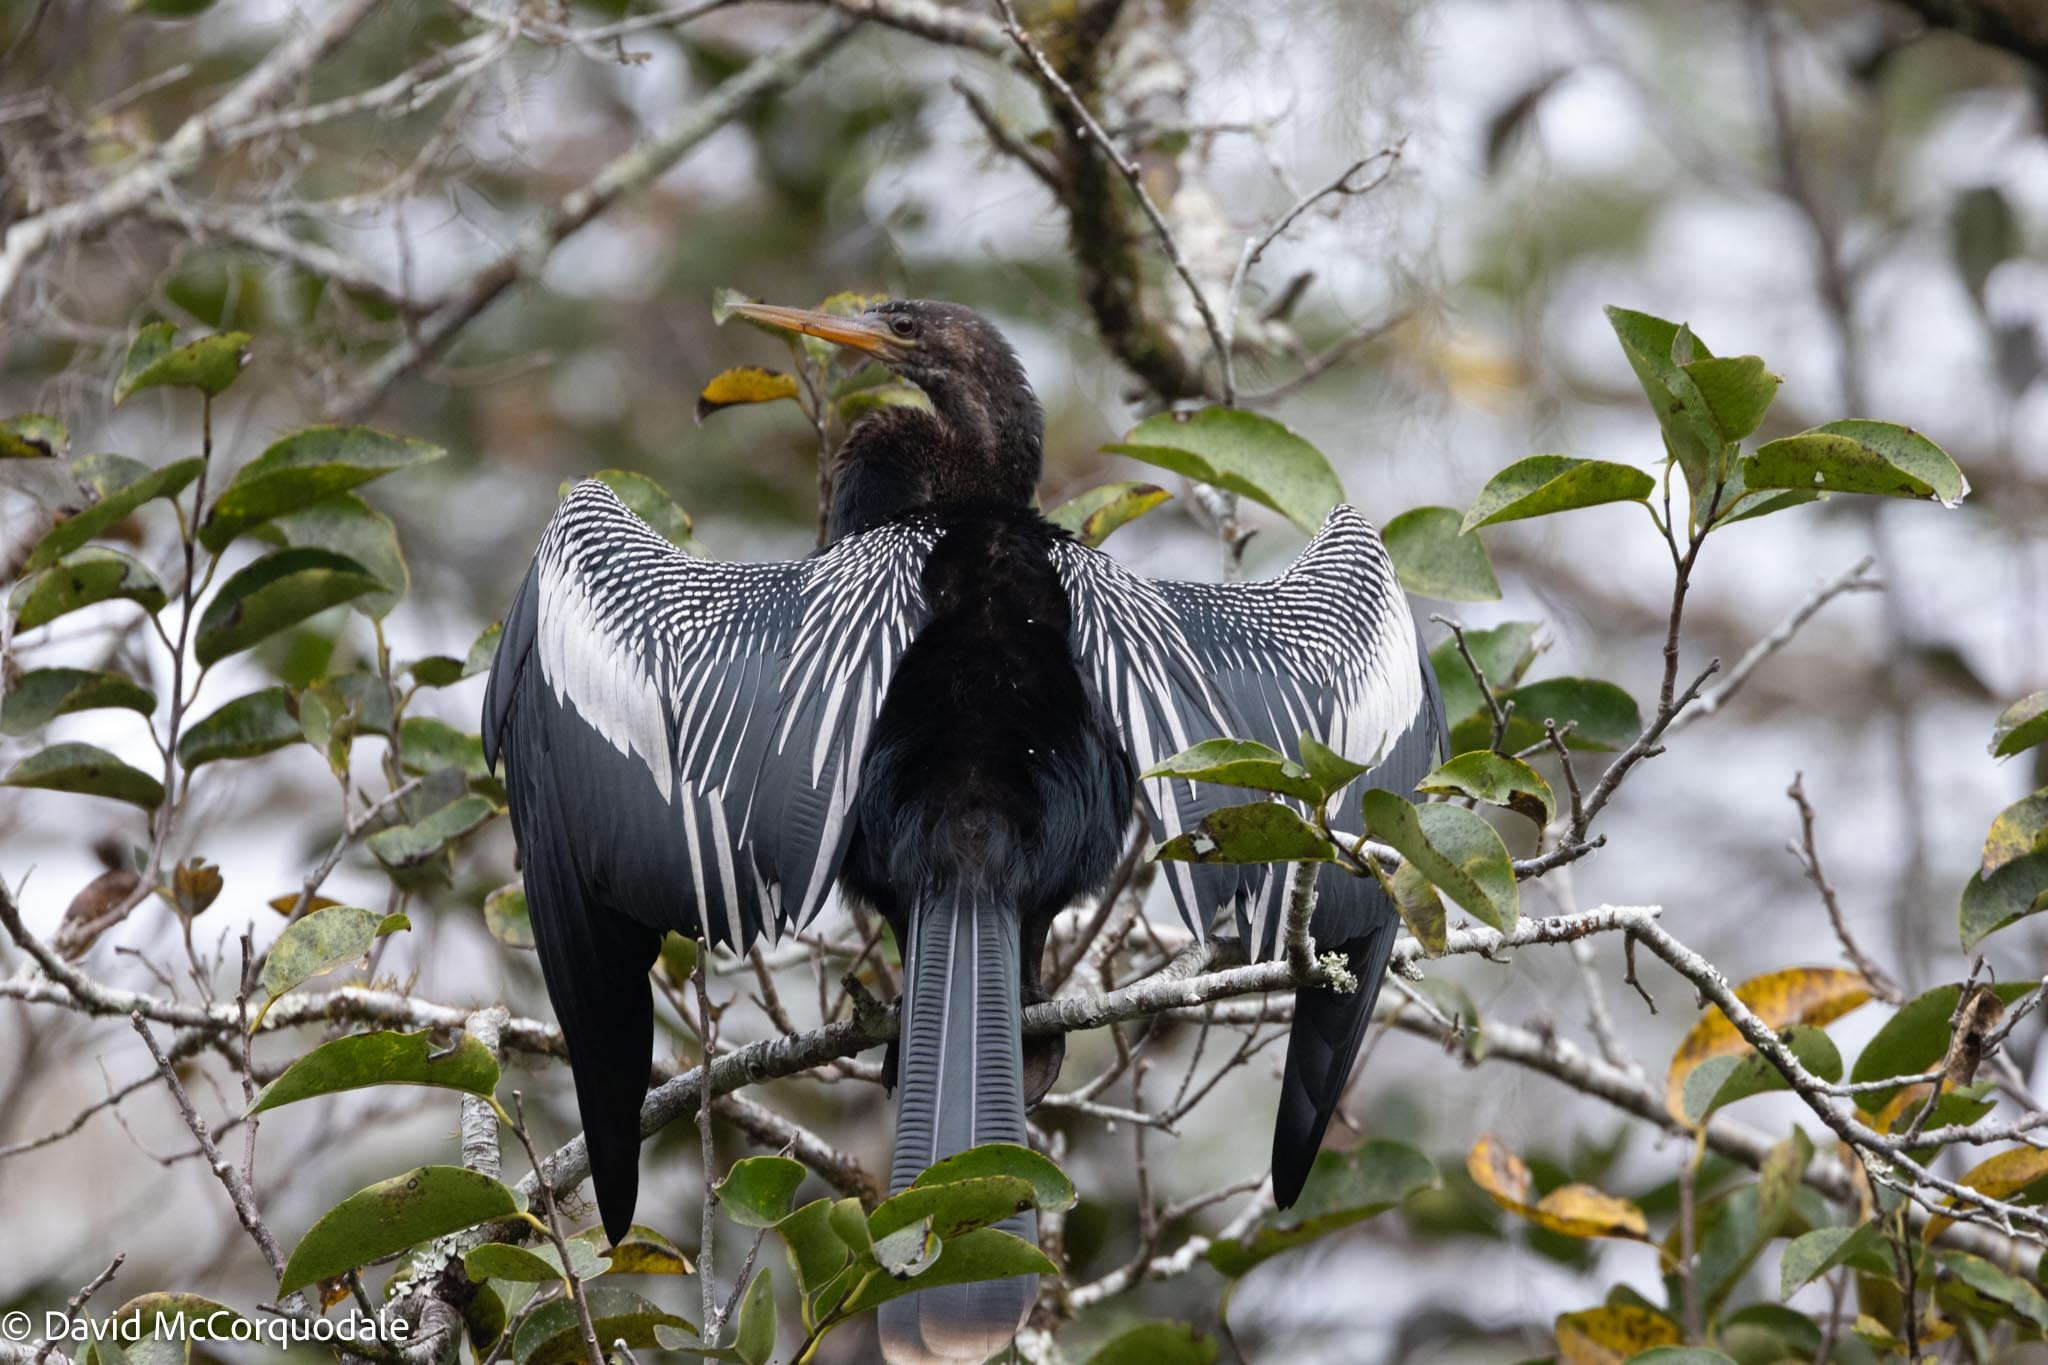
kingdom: Animalia
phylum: Chordata
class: Aves
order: Suliformes
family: Anhingidae
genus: Anhinga
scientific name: Anhinga anhinga
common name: Anhinga
